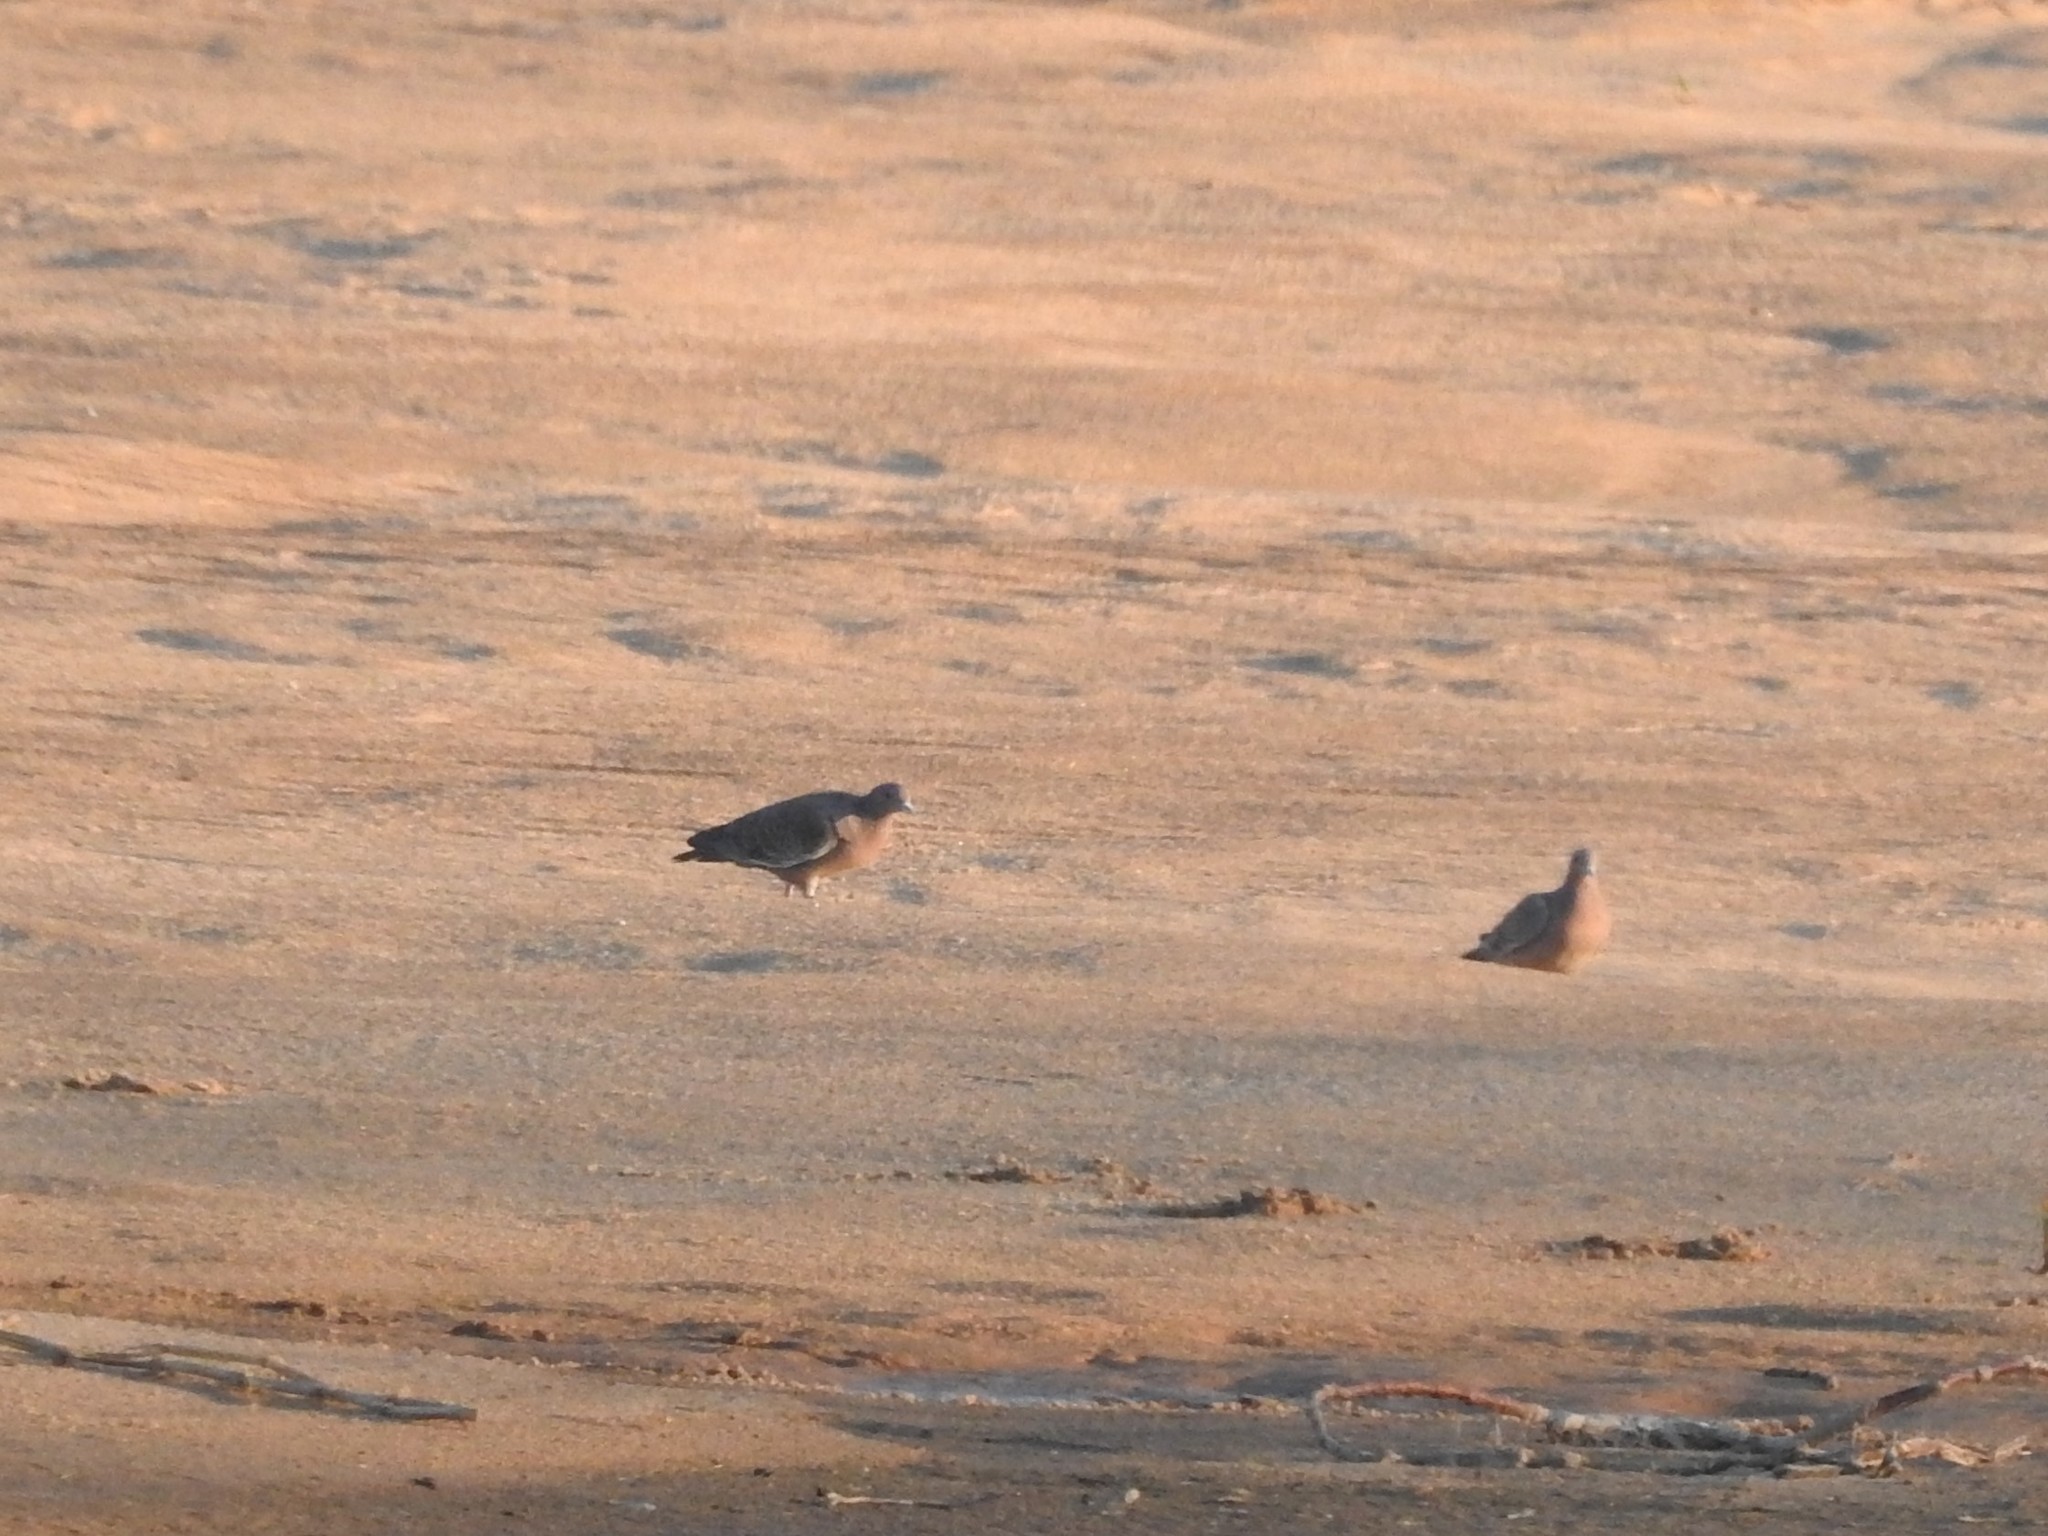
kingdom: Animalia
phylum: Chordata
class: Aves
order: Columbiformes
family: Columbidae
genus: Zenaida
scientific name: Zenaida auriculata
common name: Eared dove
